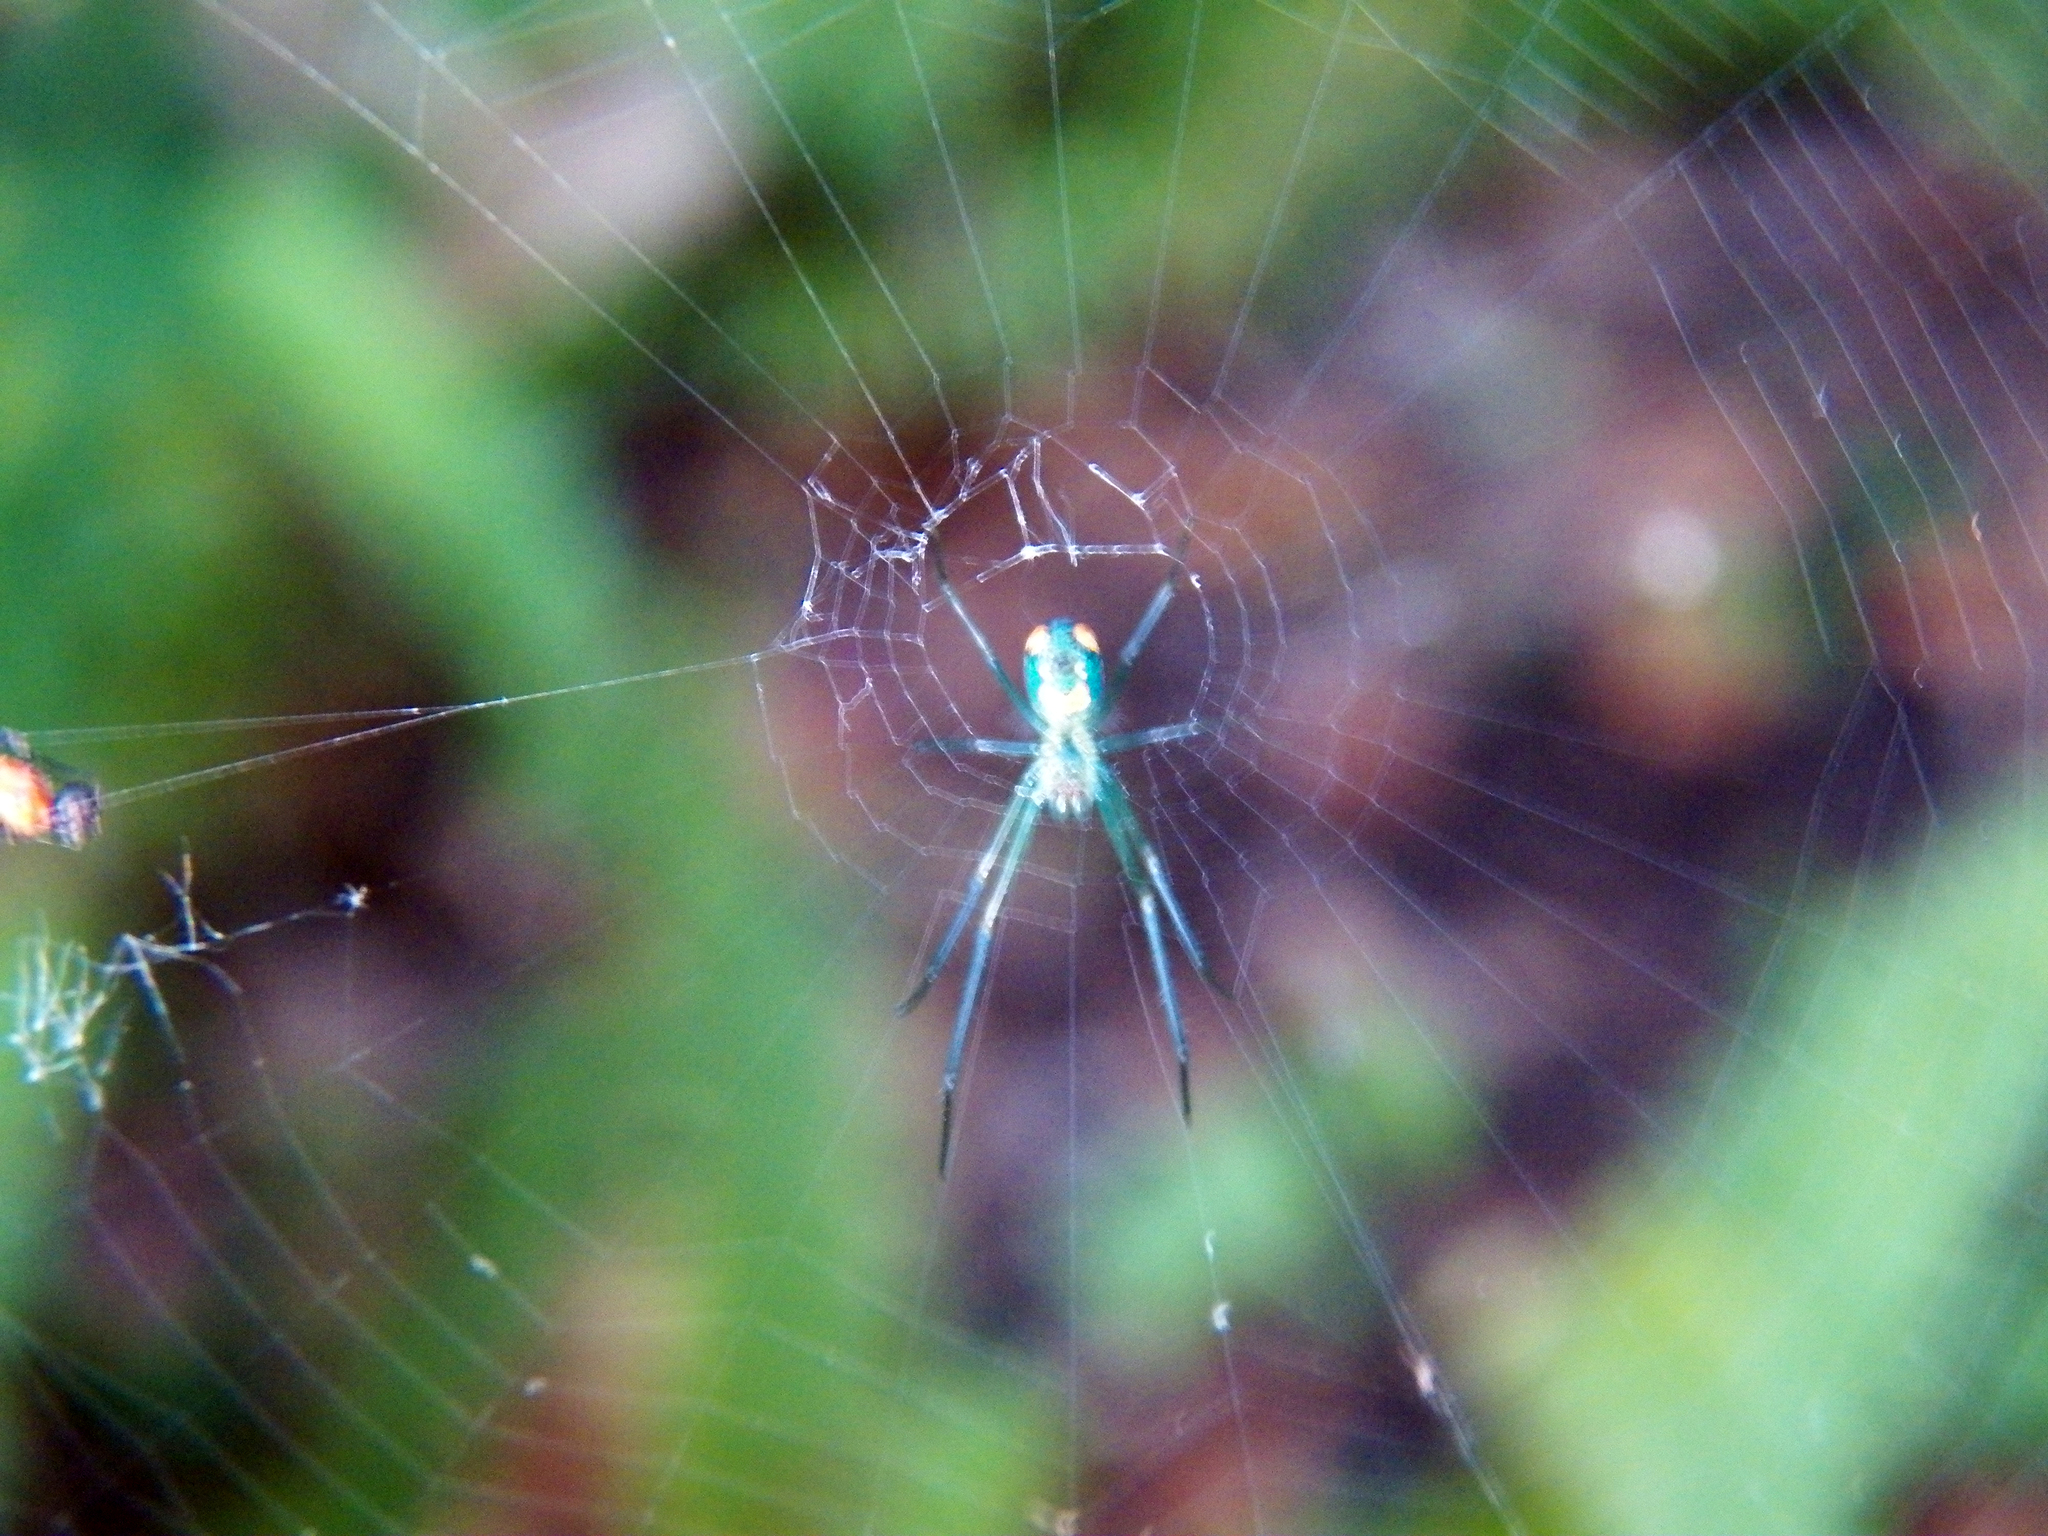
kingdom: Animalia
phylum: Arthropoda
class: Arachnida
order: Araneae
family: Tetragnathidae
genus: Leucauge
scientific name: Leucauge argyrobapta
